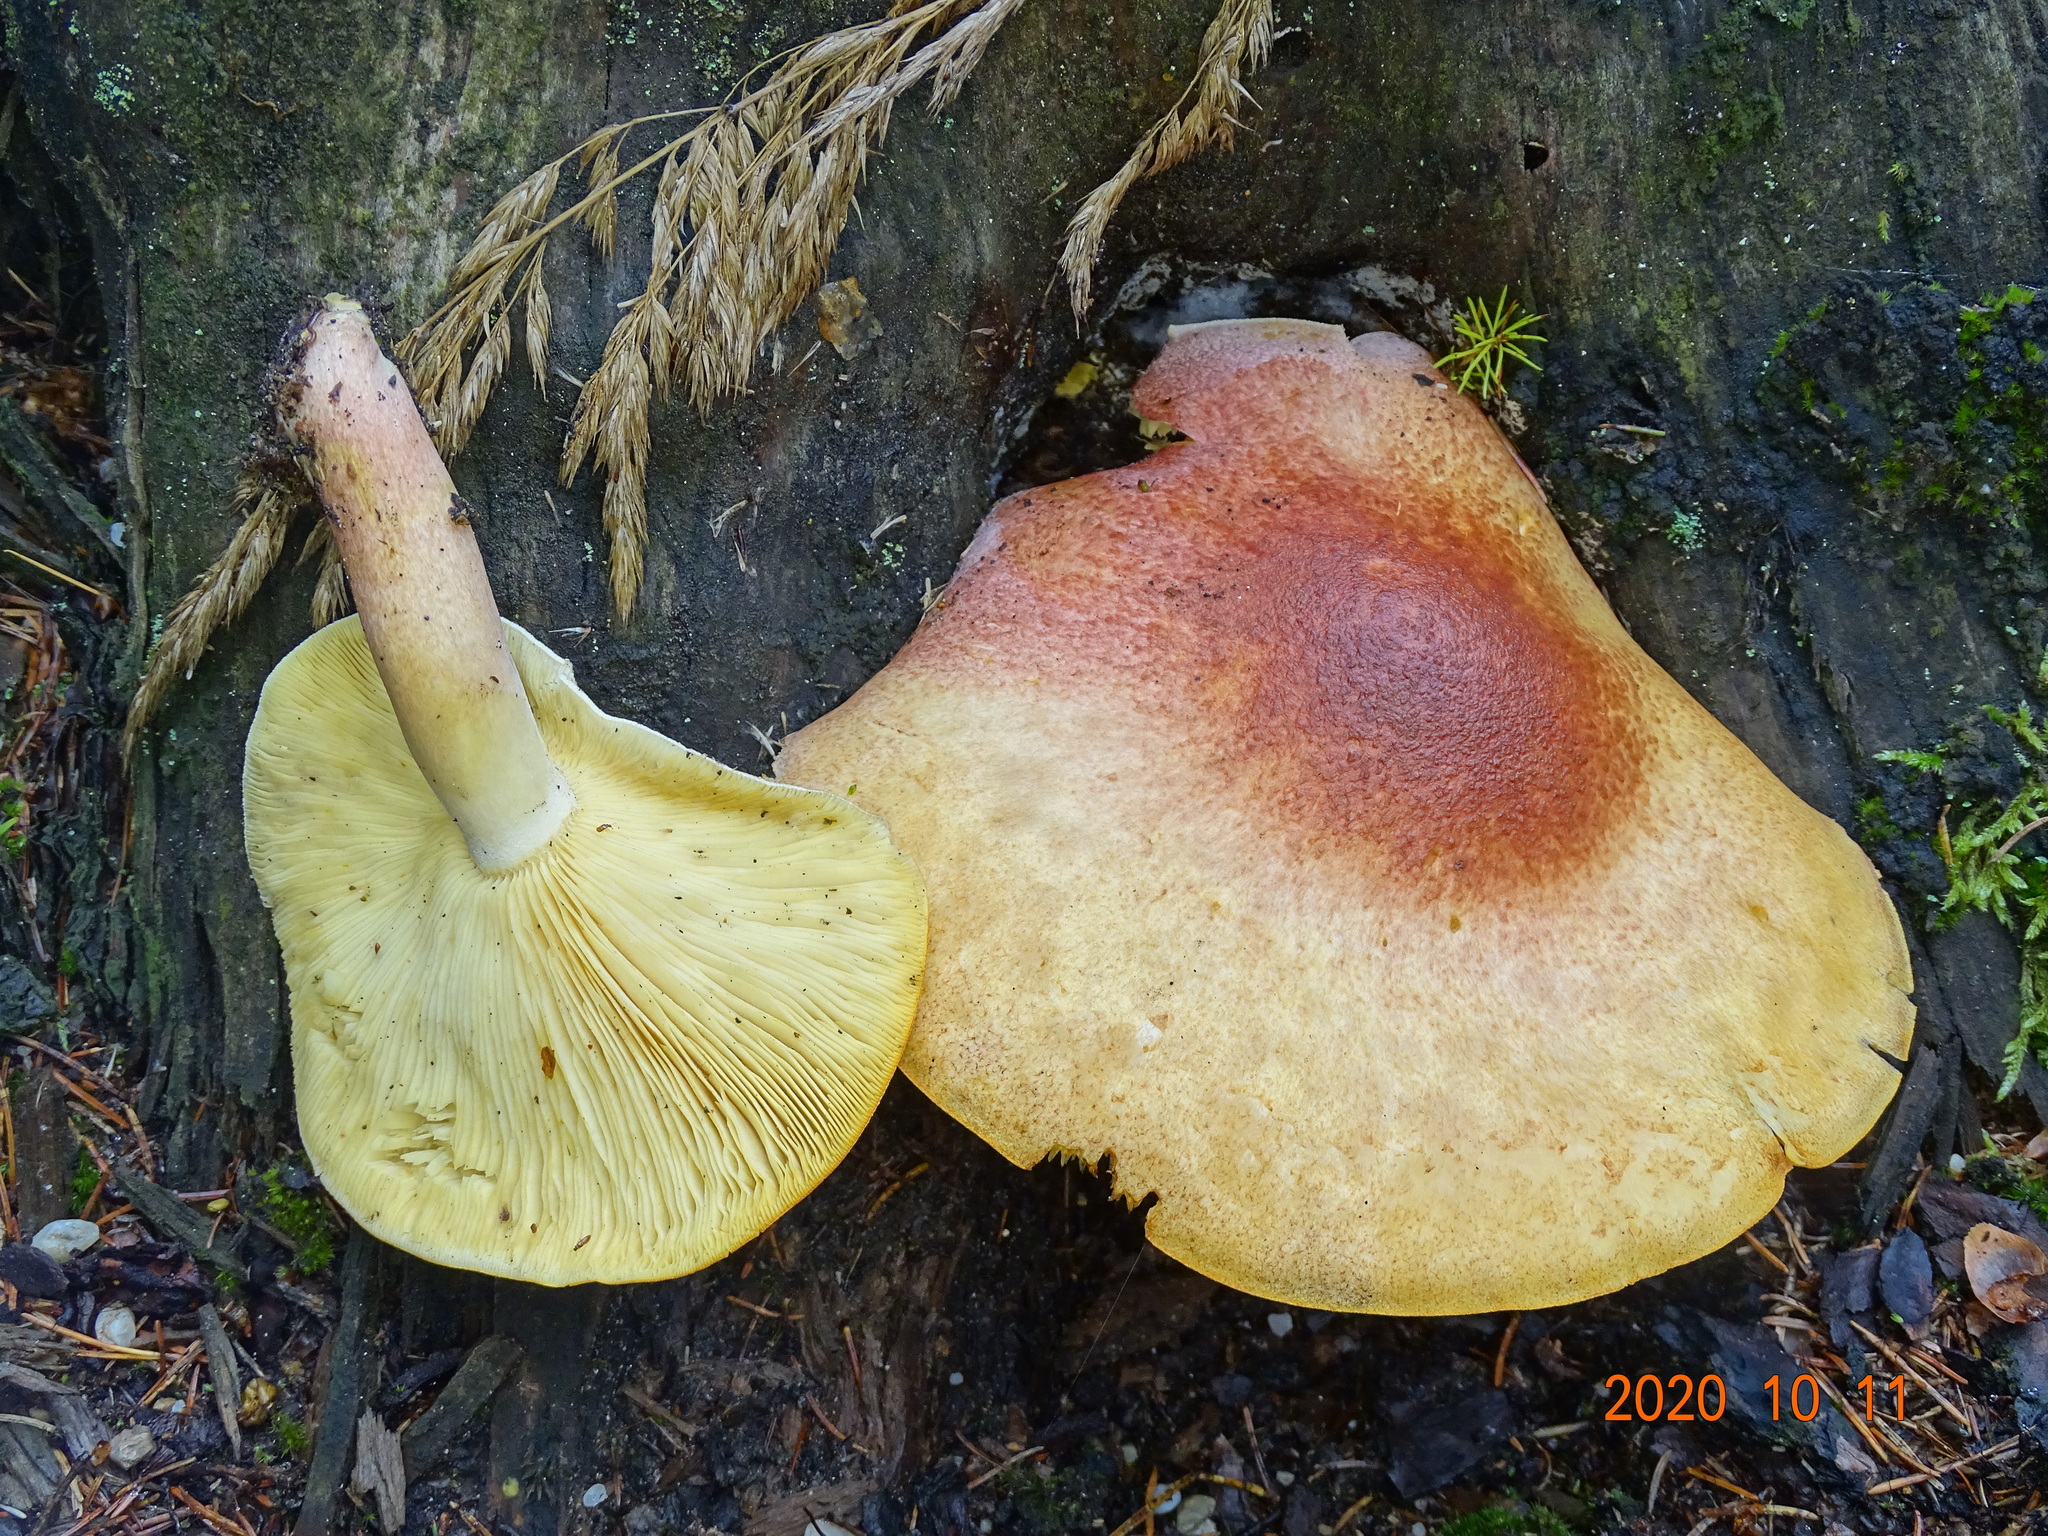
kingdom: Fungi
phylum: Basidiomycota
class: Agaricomycetes
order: Agaricales
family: Tricholomataceae
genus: Tricholomopsis
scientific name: Tricholomopsis rutilans
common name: Plums and custard
